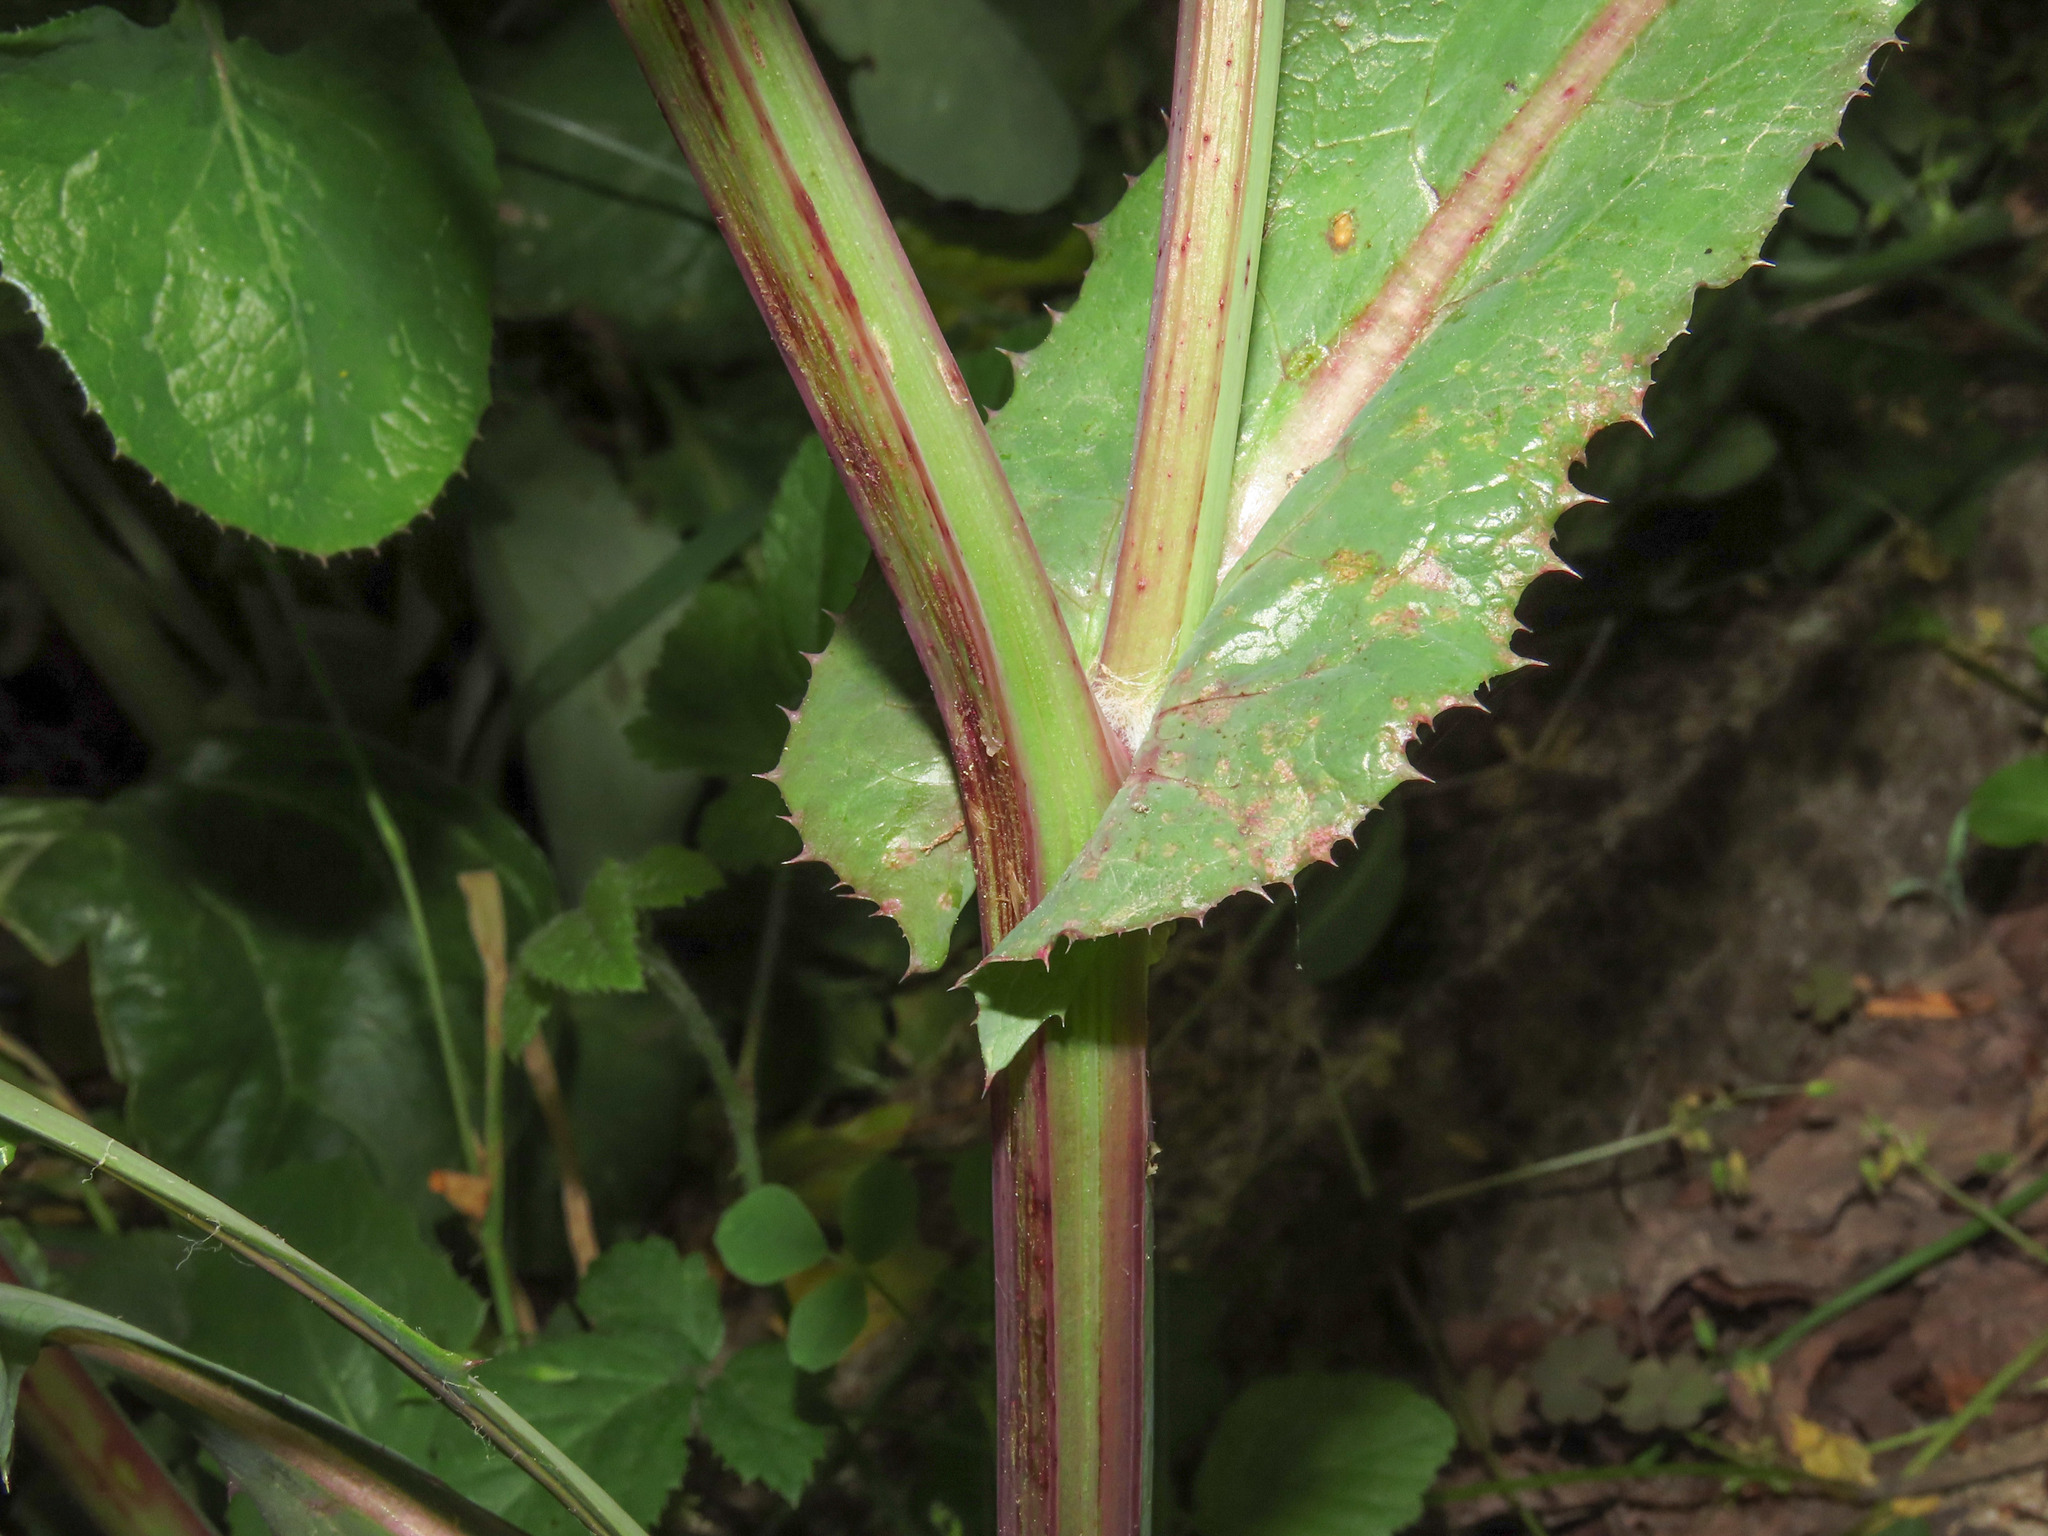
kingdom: Plantae
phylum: Tracheophyta
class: Magnoliopsida
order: Asterales
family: Asteraceae
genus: Sonchus
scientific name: Sonchus oleraceus
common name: Common sowthistle
